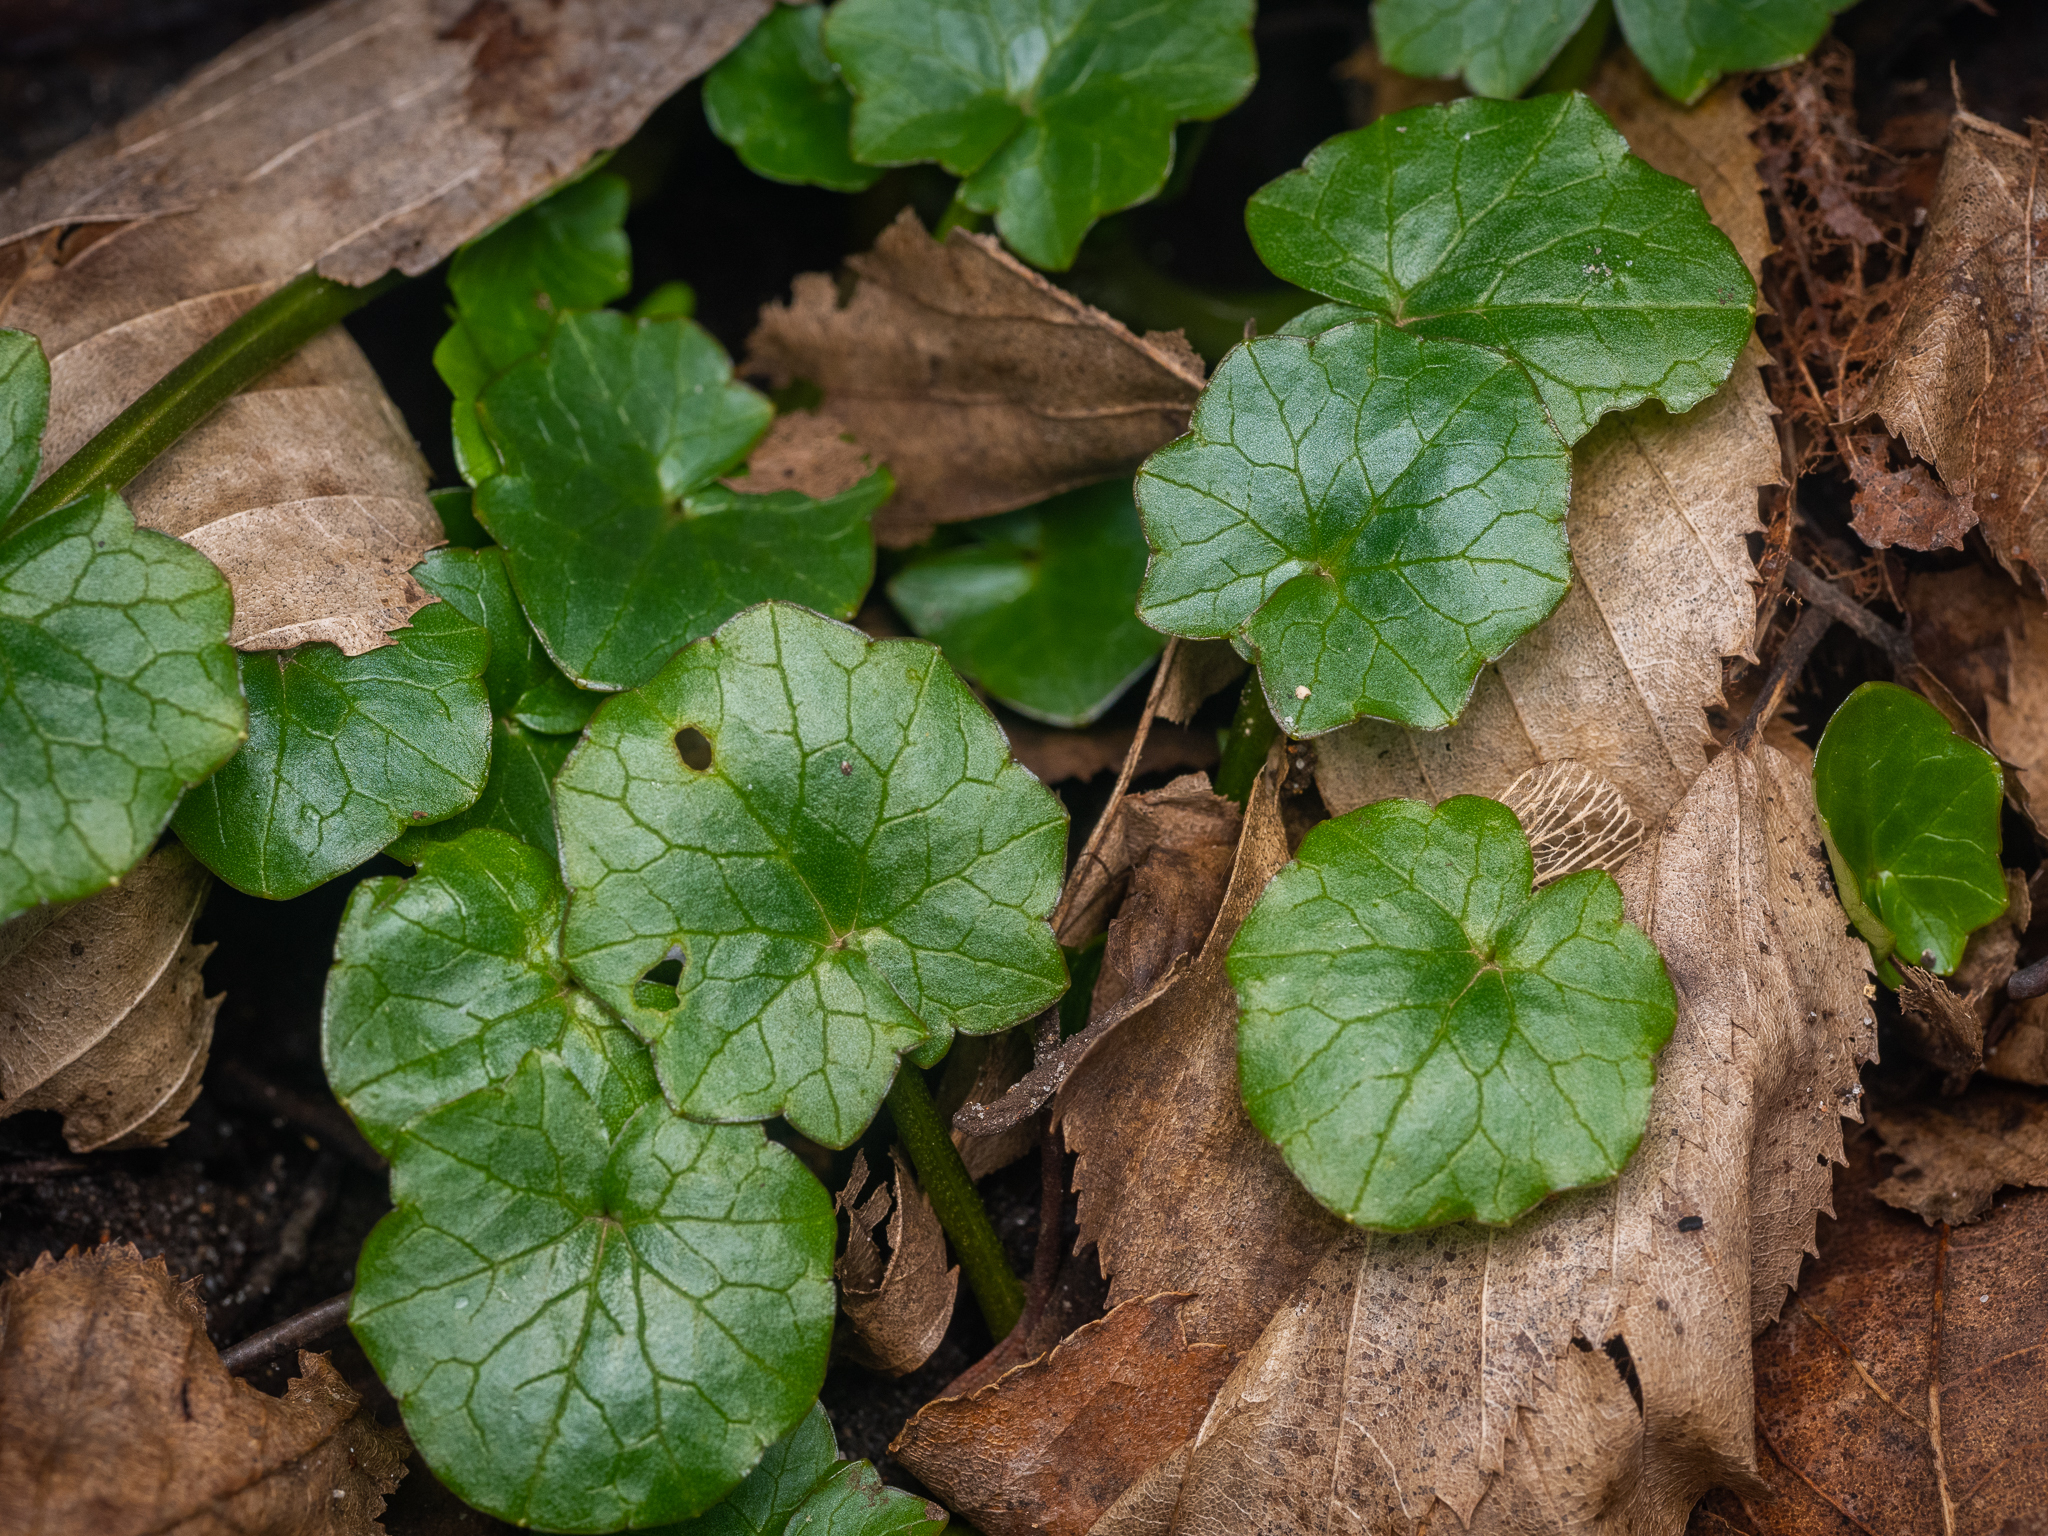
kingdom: Plantae
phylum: Tracheophyta
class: Magnoliopsida
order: Ranunculales
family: Ranunculaceae
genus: Ficaria
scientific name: Ficaria verna
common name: Lesser celandine
